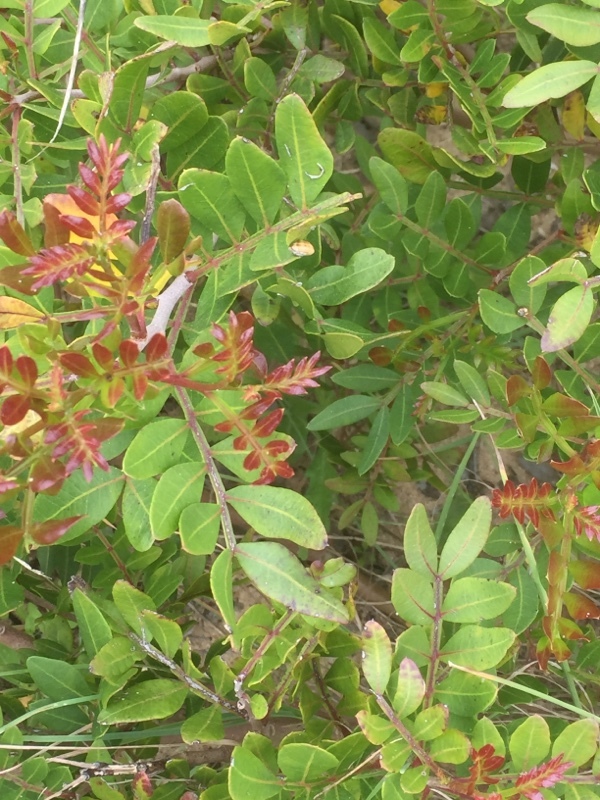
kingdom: Plantae
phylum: Tracheophyta
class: Magnoliopsida
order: Sapindales
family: Anacardiaceae
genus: Pistacia
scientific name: Pistacia lentiscus
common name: Lentisk
